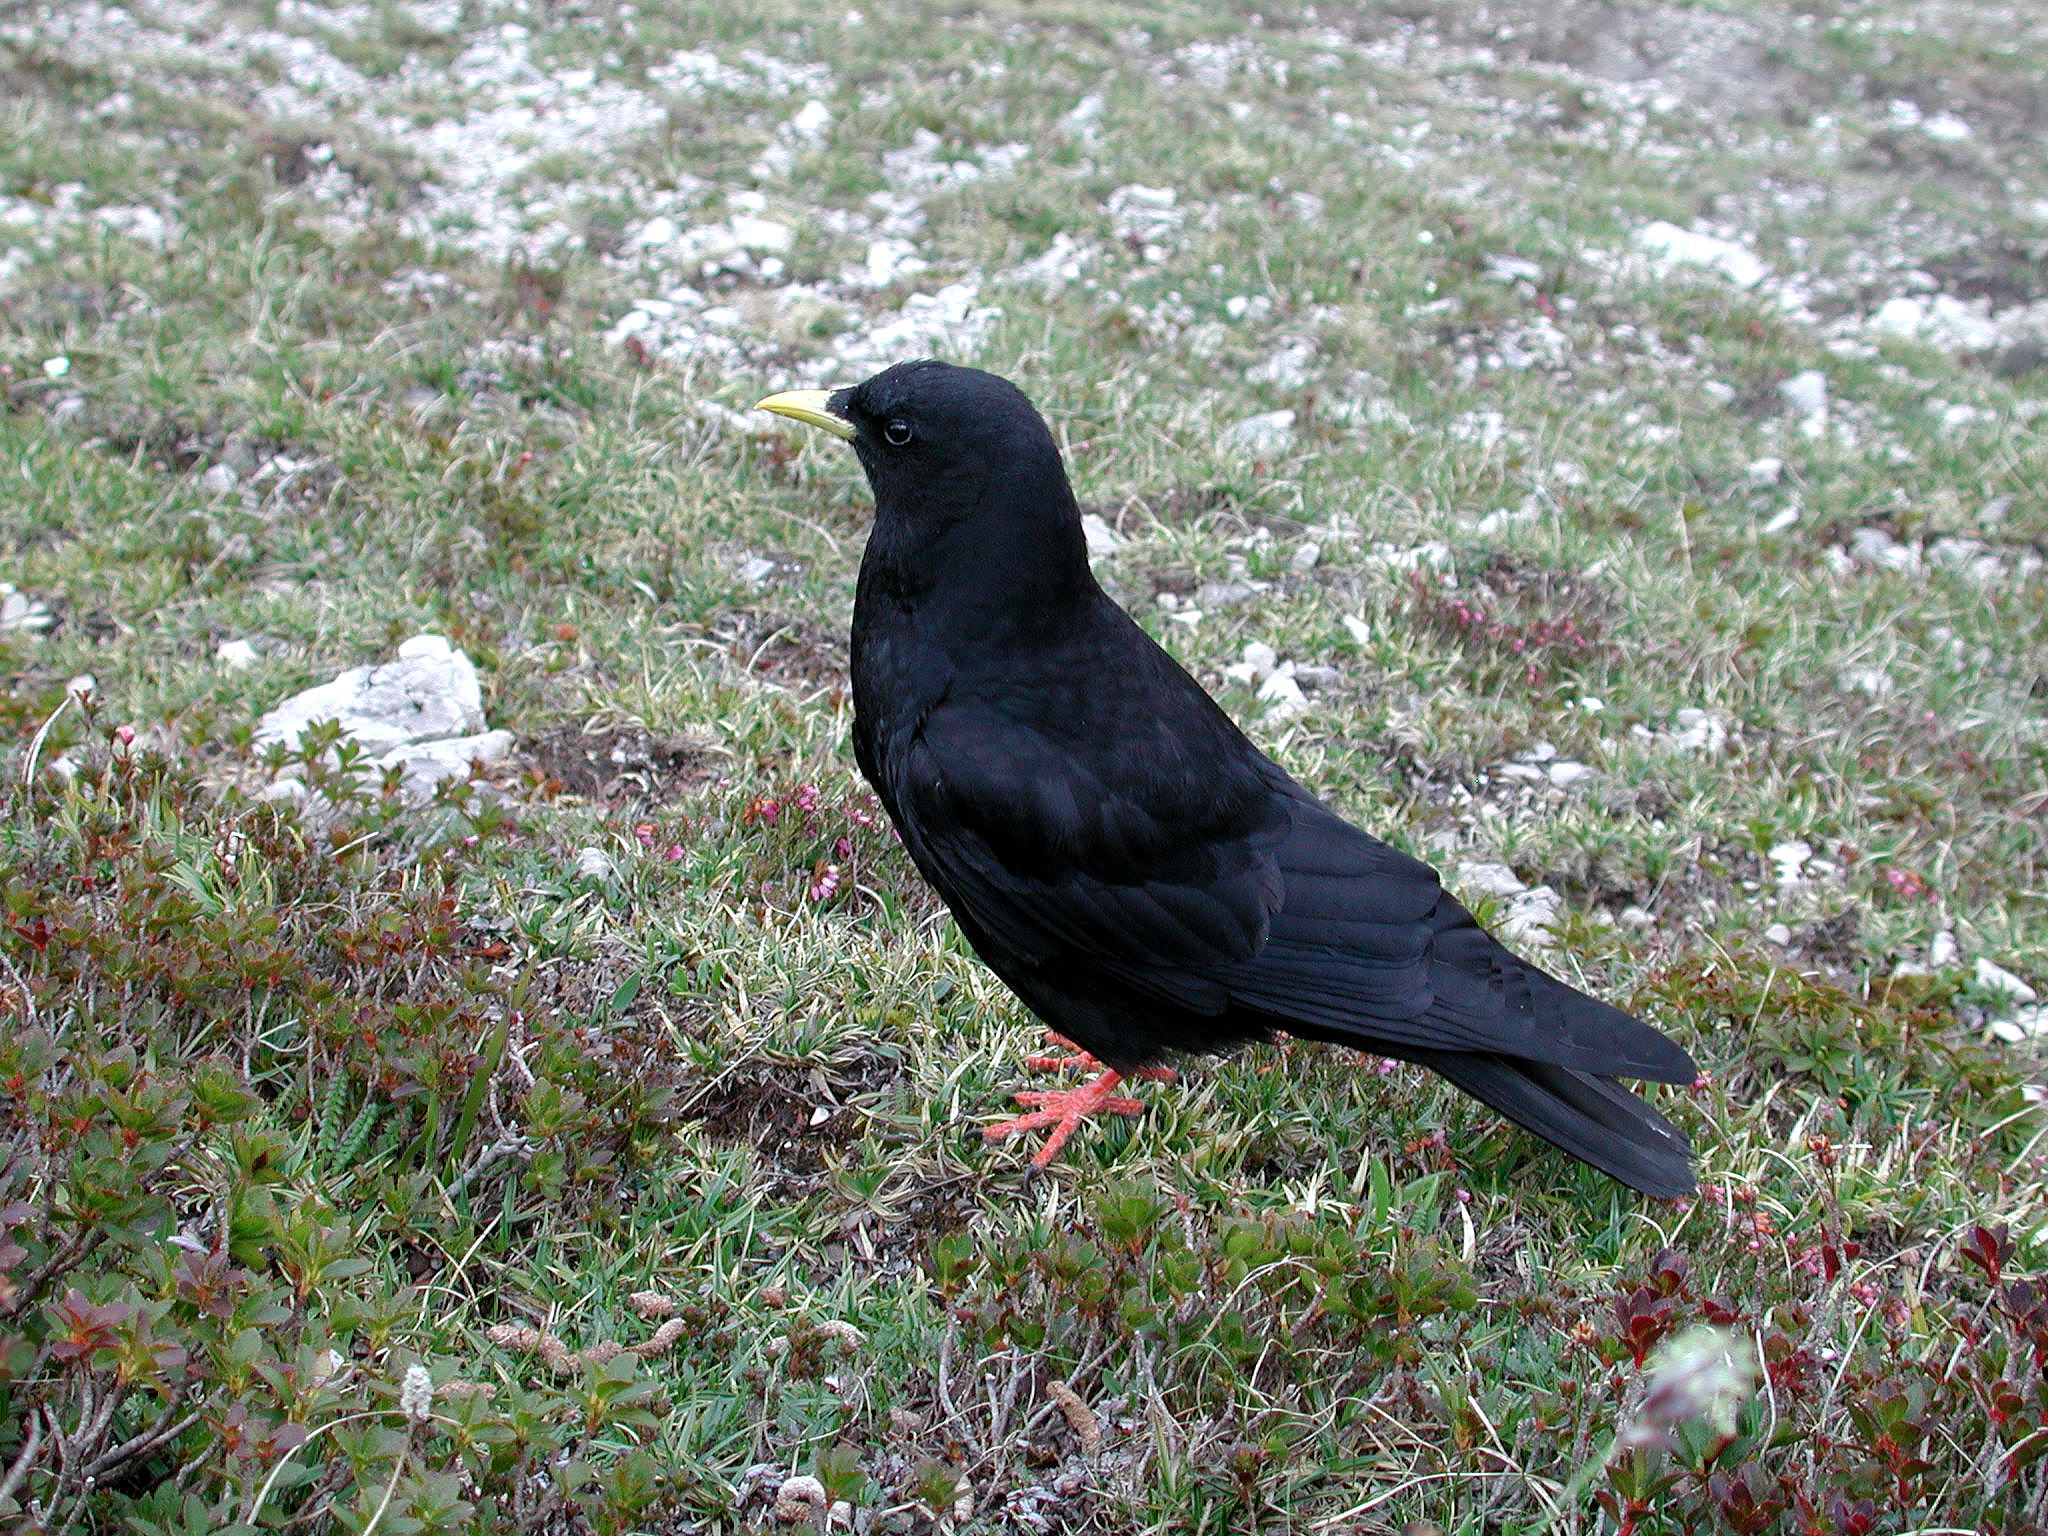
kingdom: Animalia
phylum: Chordata
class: Aves
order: Passeriformes
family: Corvidae
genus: Pyrrhocorax
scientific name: Pyrrhocorax graculus
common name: Alpine chough
